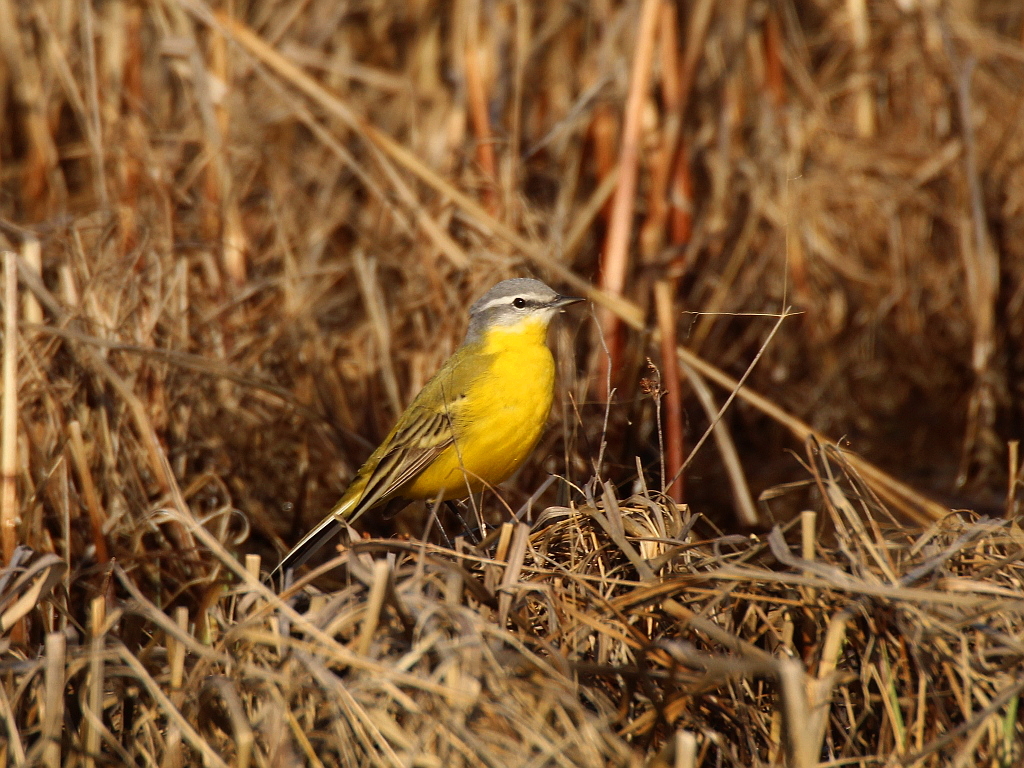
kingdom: Animalia
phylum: Chordata
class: Aves
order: Passeriformes
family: Motacillidae
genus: Motacilla
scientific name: Motacilla flava
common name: Western yellow wagtail
